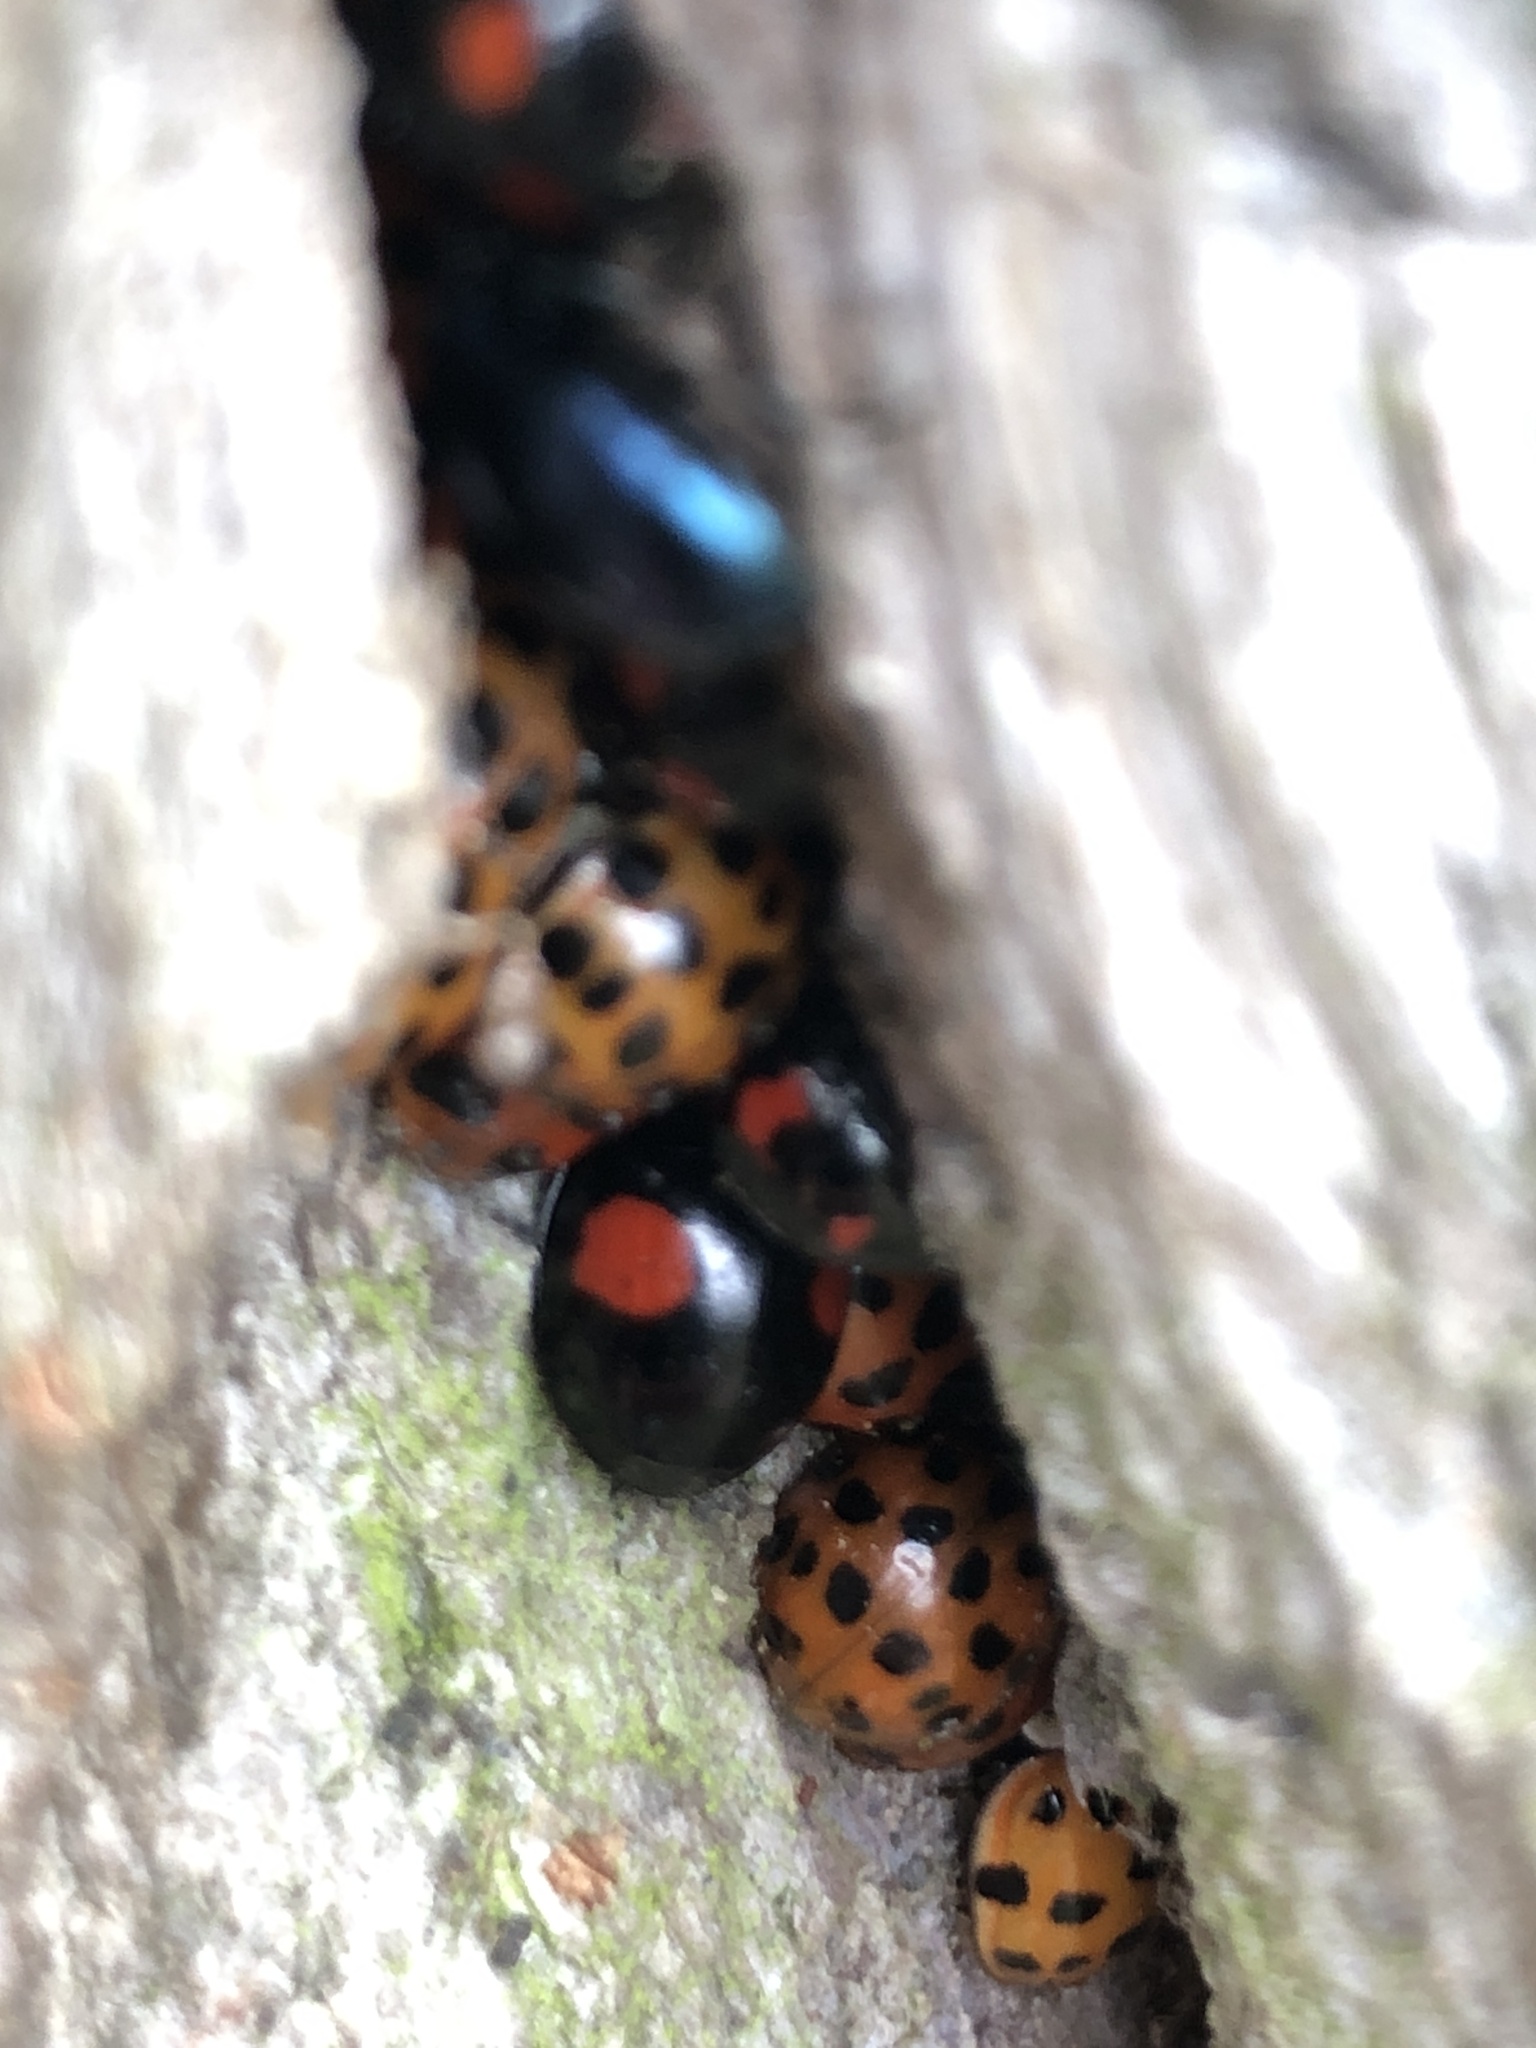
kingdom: Animalia
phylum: Arthropoda
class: Insecta
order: Coleoptera
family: Coccinellidae
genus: Harmonia
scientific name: Harmonia axyridis
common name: Harlequin ladybird
